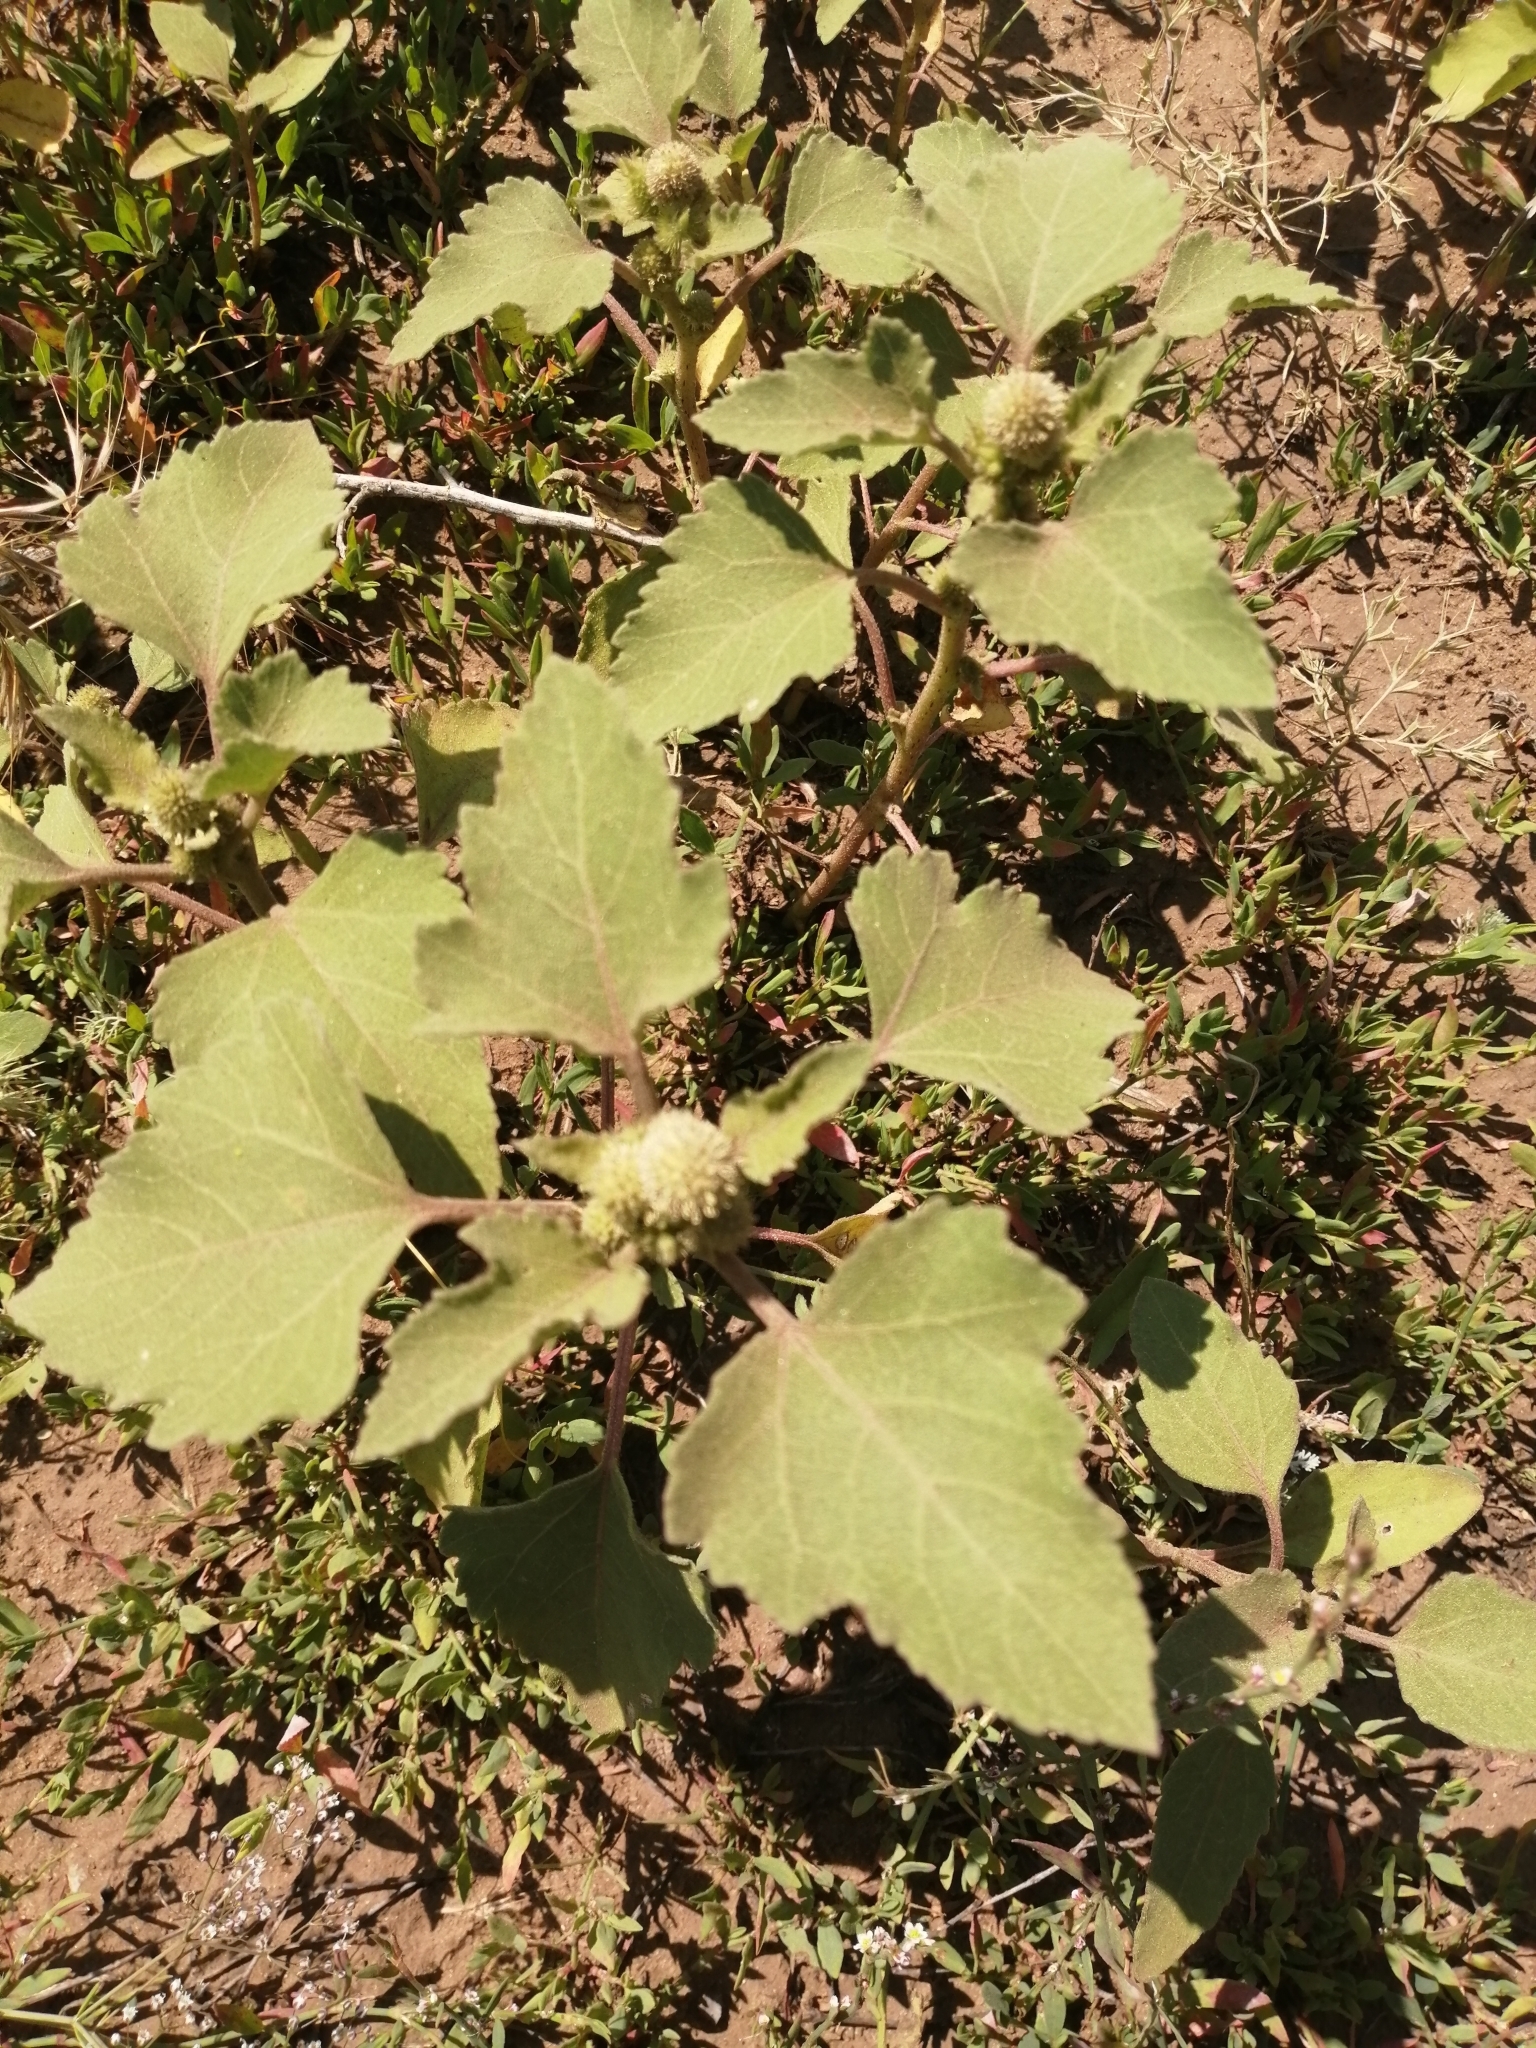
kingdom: Plantae
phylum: Tracheophyta
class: Magnoliopsida
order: Asterales
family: Asteraceae
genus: Xanthium
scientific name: Xanthium orientale
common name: Californian burr
